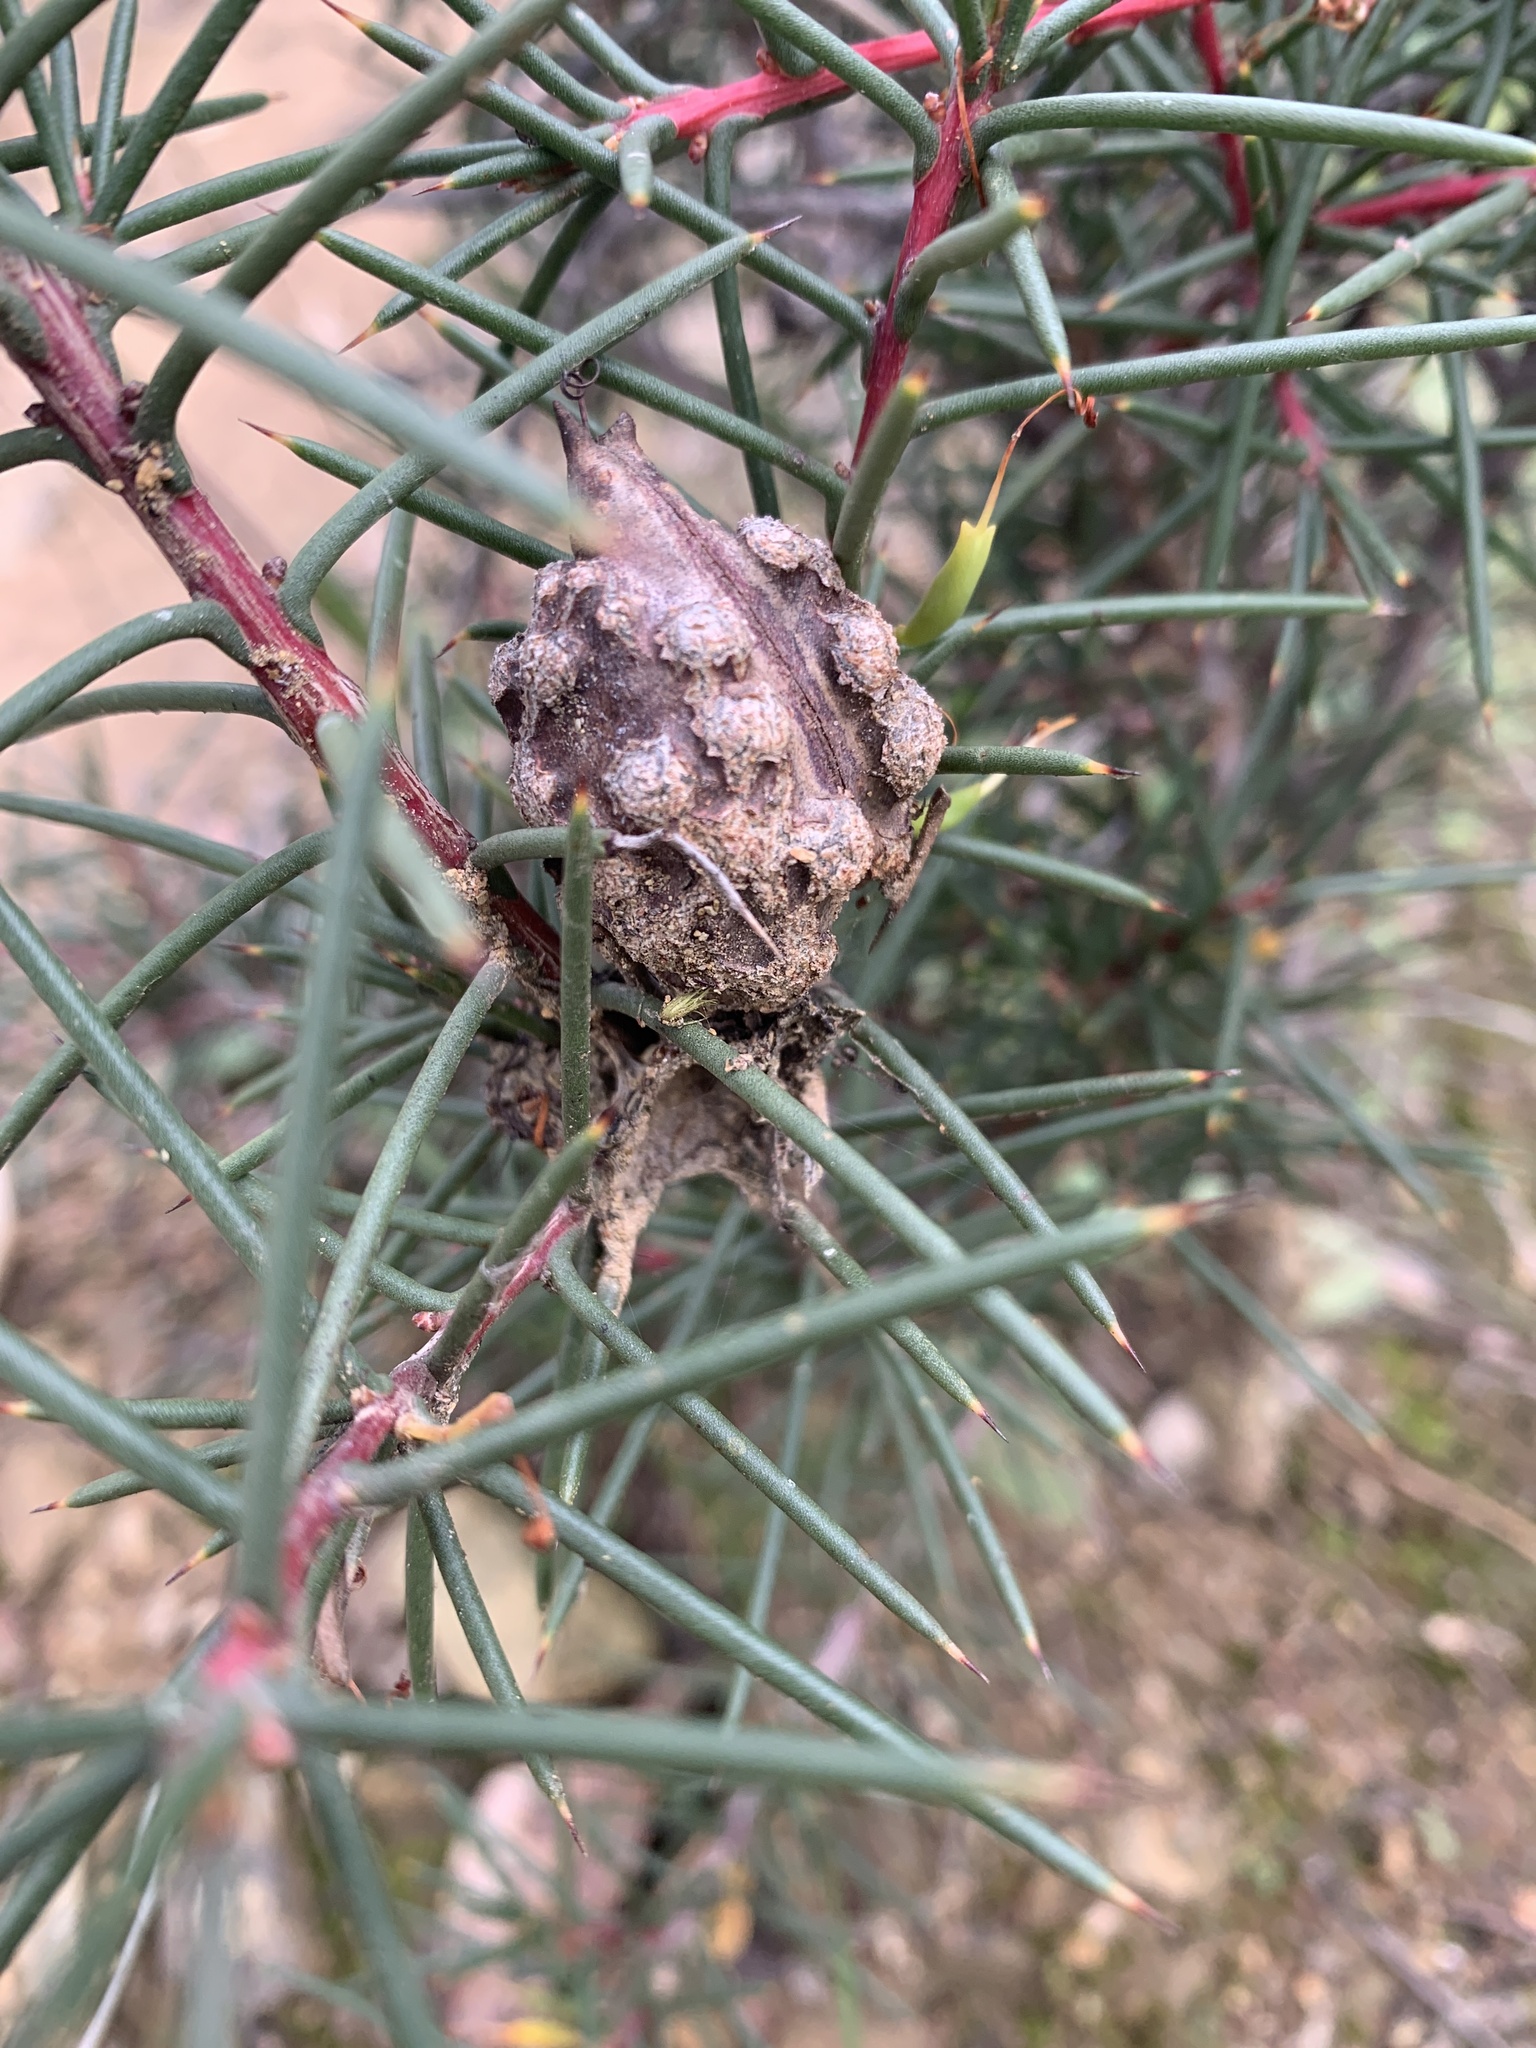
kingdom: Plantae
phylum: Tracheophyta
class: Magnoliopsida
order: Proteales
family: Proteaceae
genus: Hakea
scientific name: Hakea decurrens
